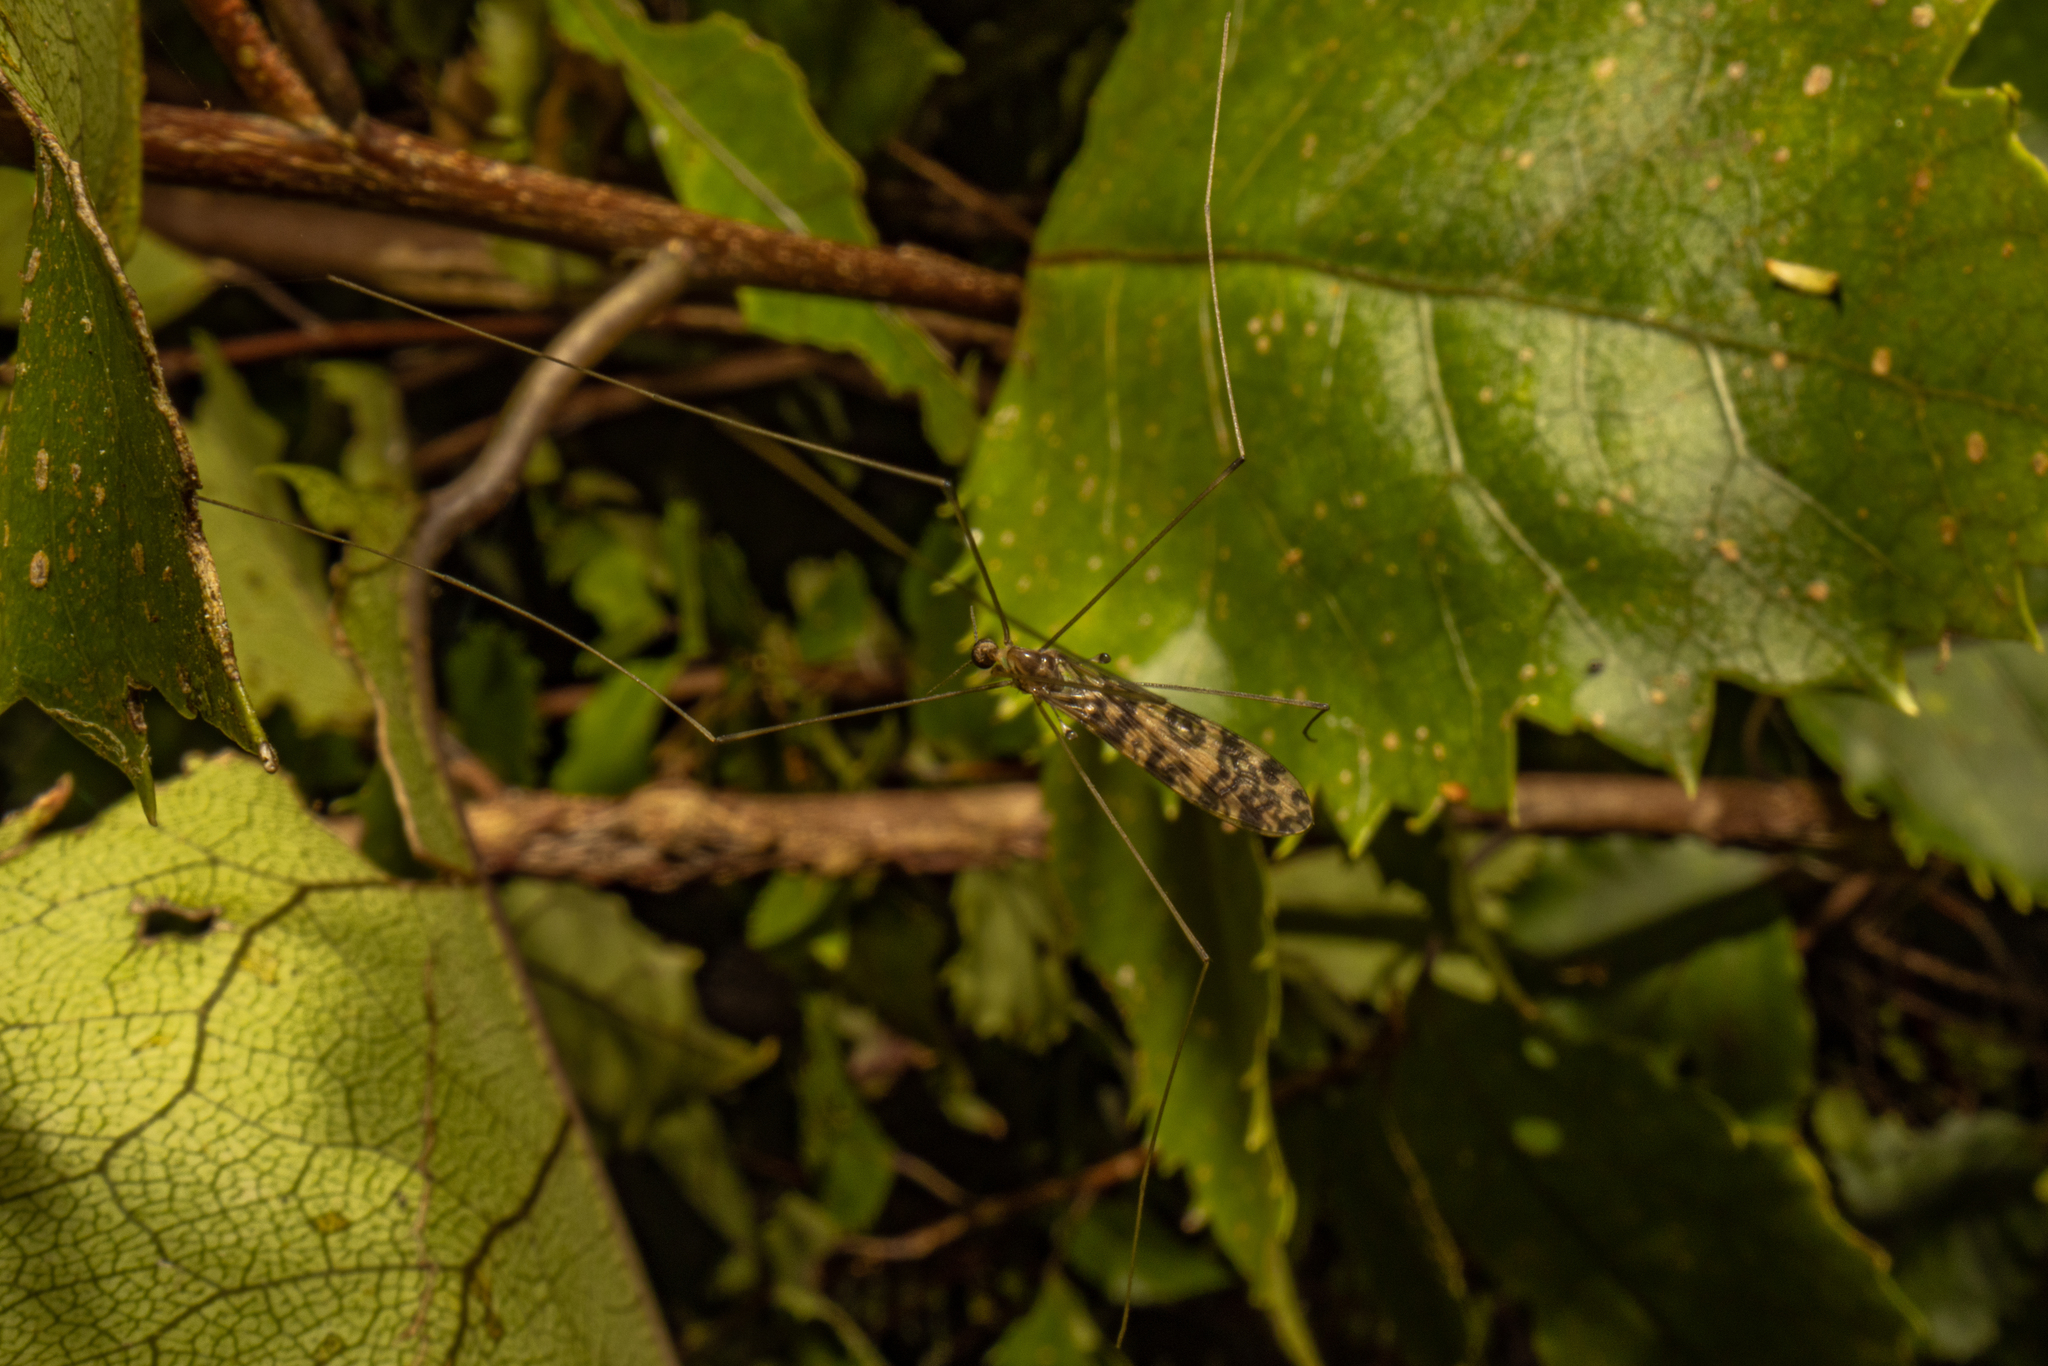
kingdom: Animalia
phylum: Arthropoda
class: Insecta
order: Diptera
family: Limoniidae
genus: Discobola
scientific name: Discobola gibberina
